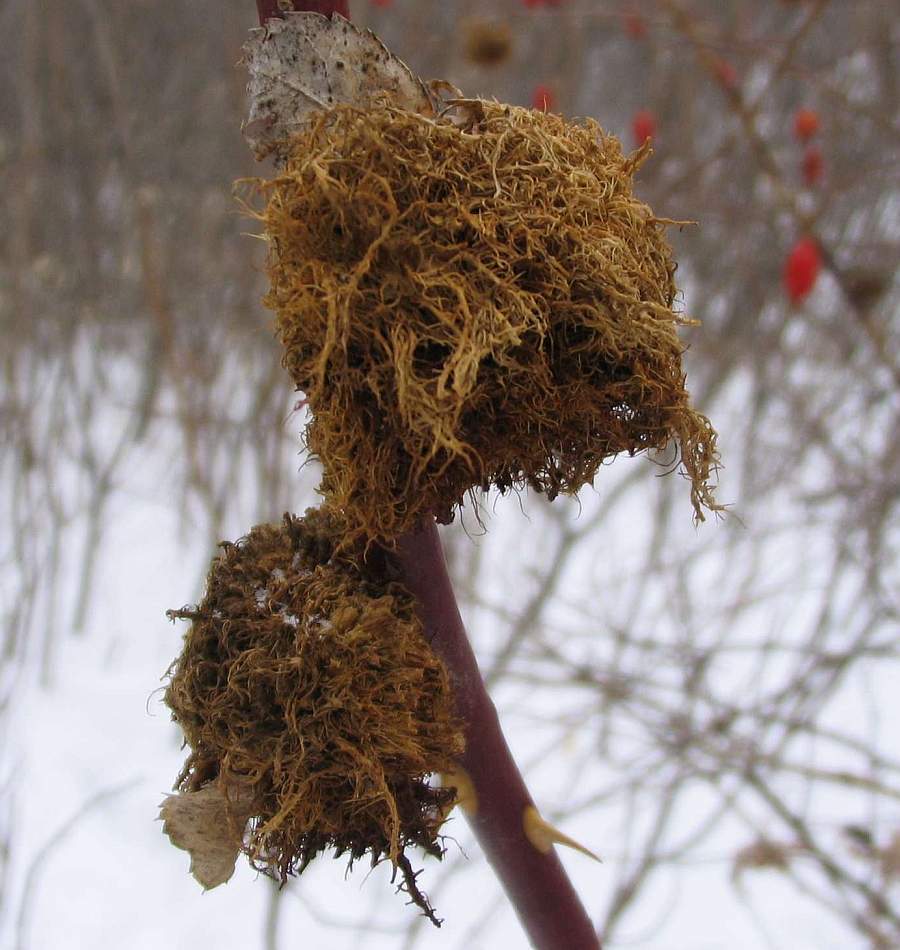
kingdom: Animalia
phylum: Arthropoda
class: Insecta
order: Hymenoptera
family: Cynipidae
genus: Diplolepis
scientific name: Diplolepis rosae
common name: Bedeguar gall
